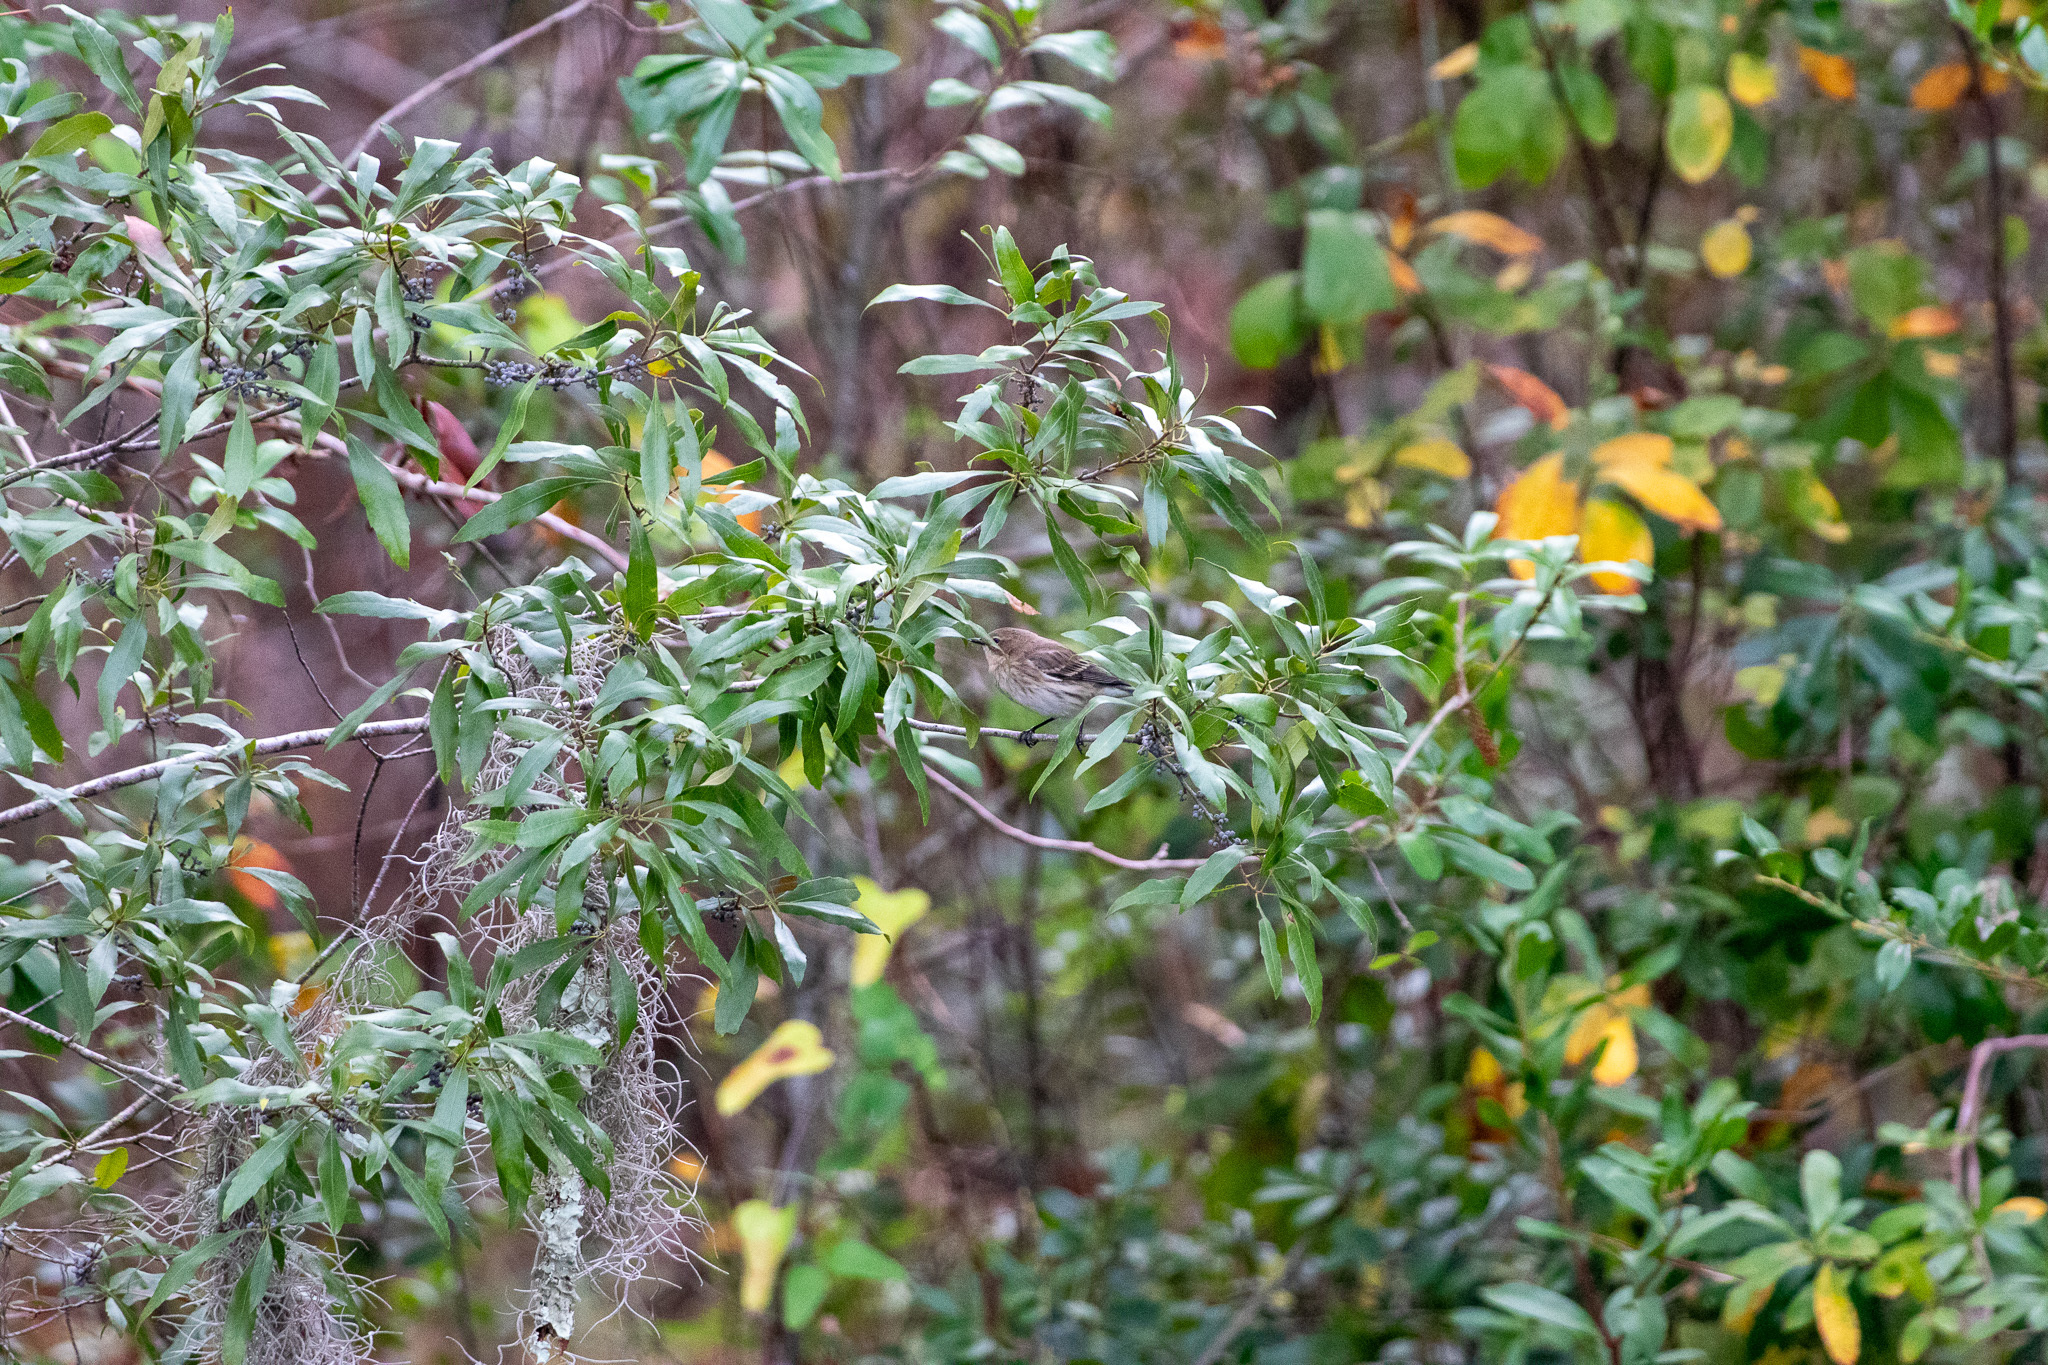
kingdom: Animalia
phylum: Chordata
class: Aves
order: Passeriformes
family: Parulidae
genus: Setophaga
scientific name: Setophaga coronata
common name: Myrtle warbler
